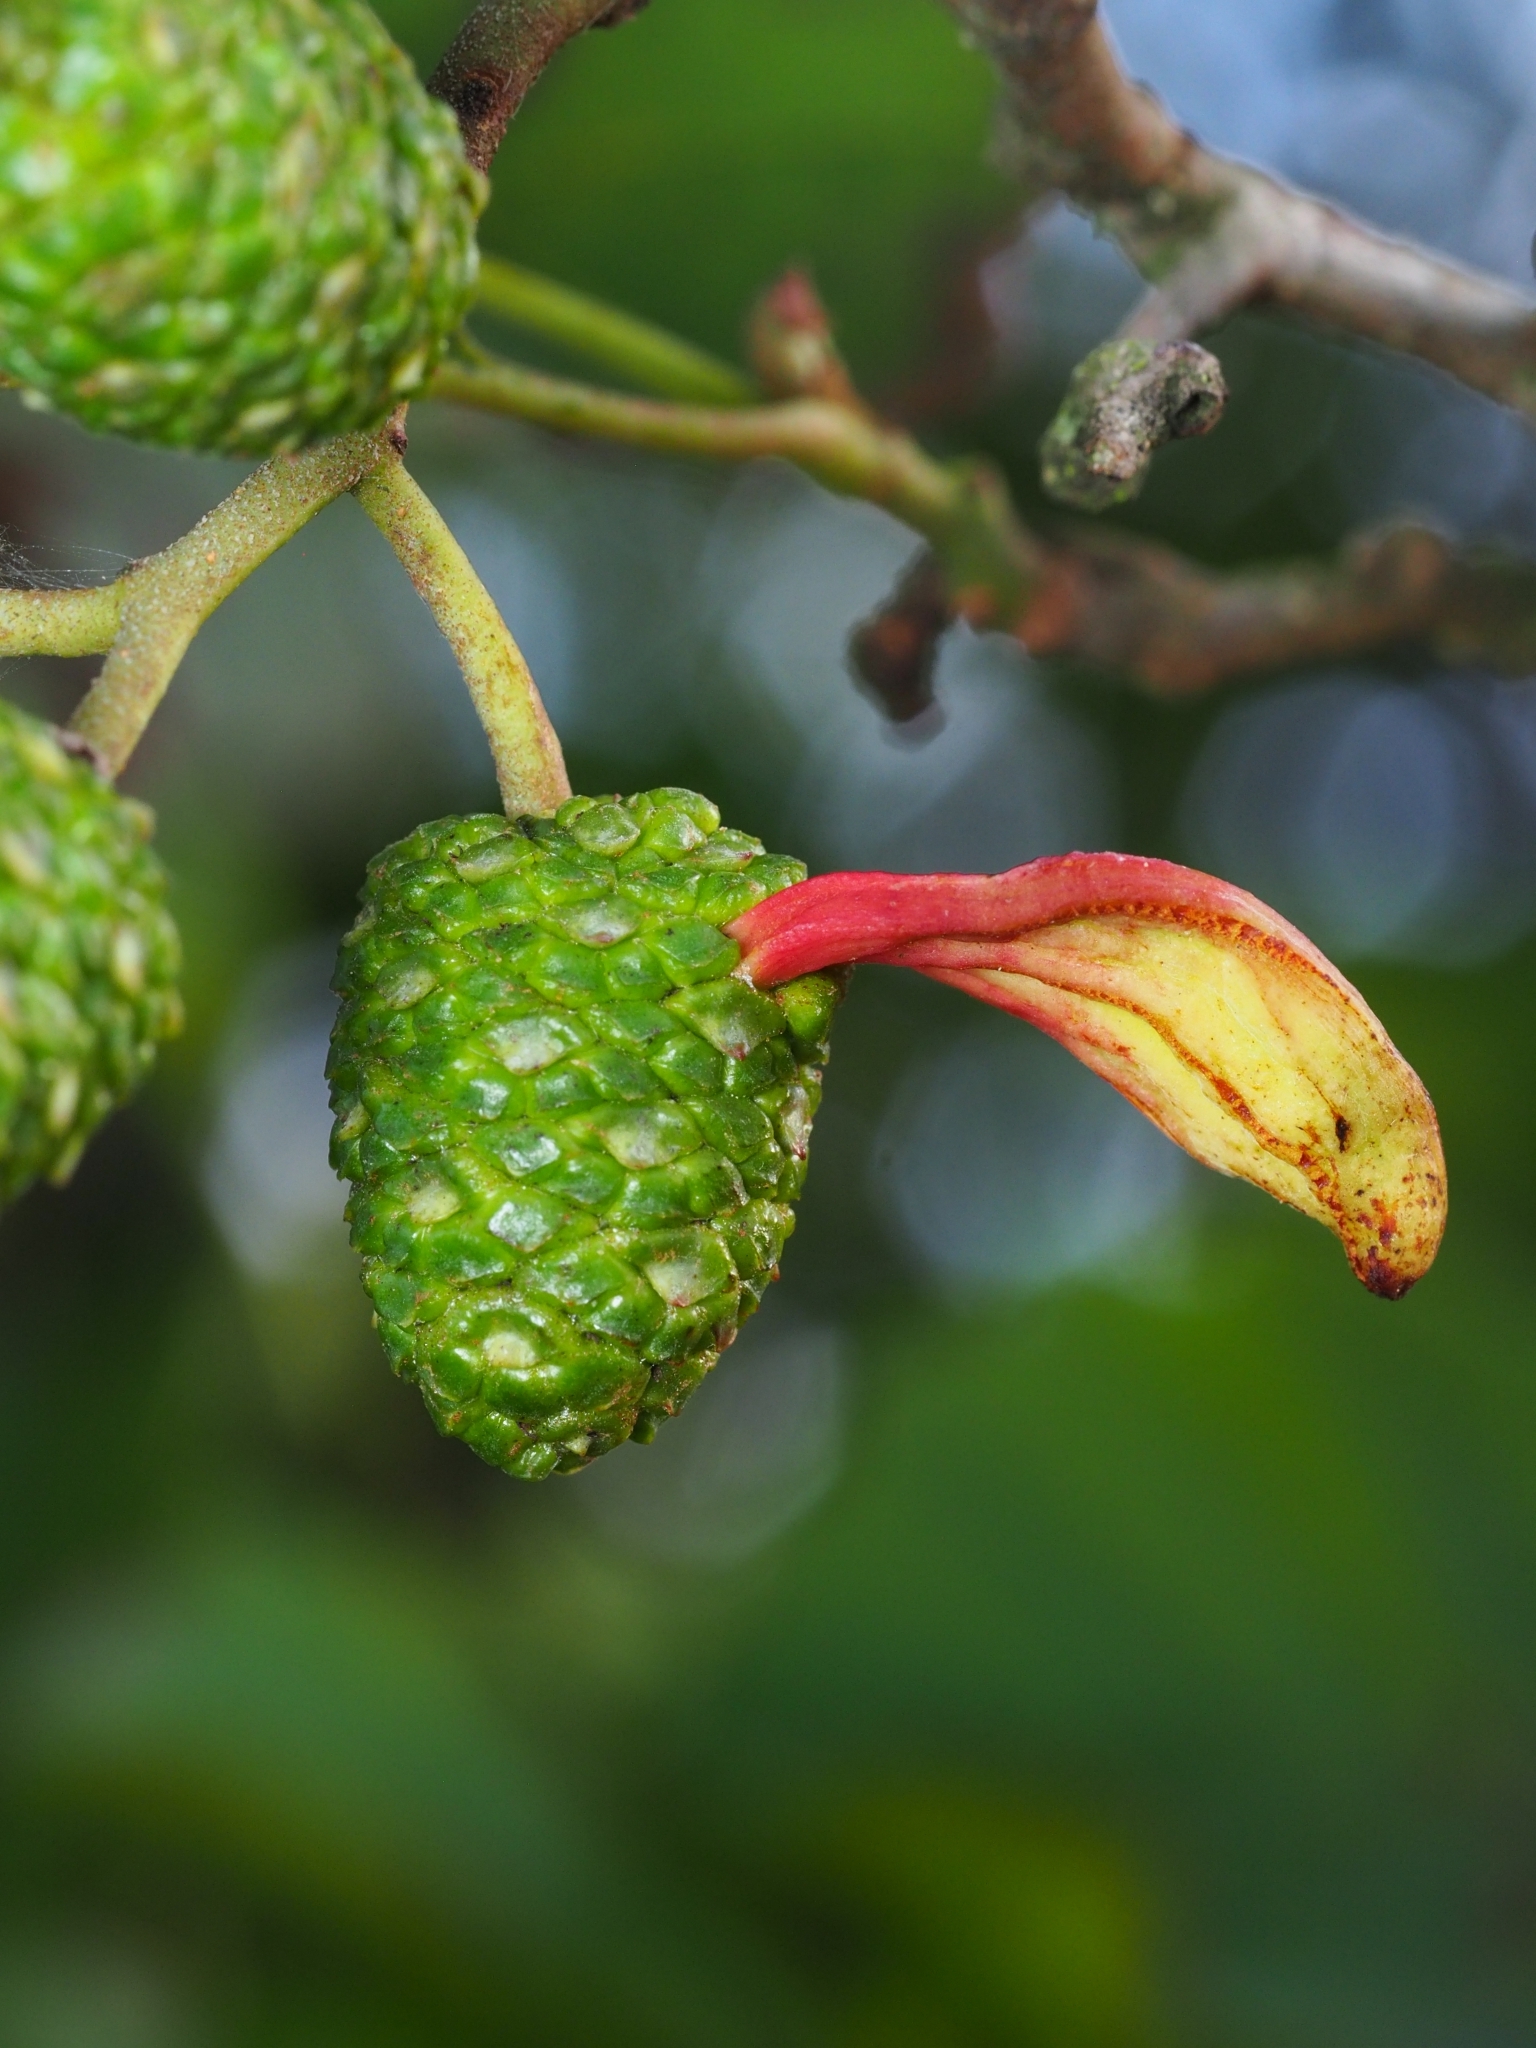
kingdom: Fungi
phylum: Ascomycota
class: Taphrinomycetes
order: Taphrinales
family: Taphrinaceae
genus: Taphrina
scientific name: Taphrina alni
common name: Alder tongue
